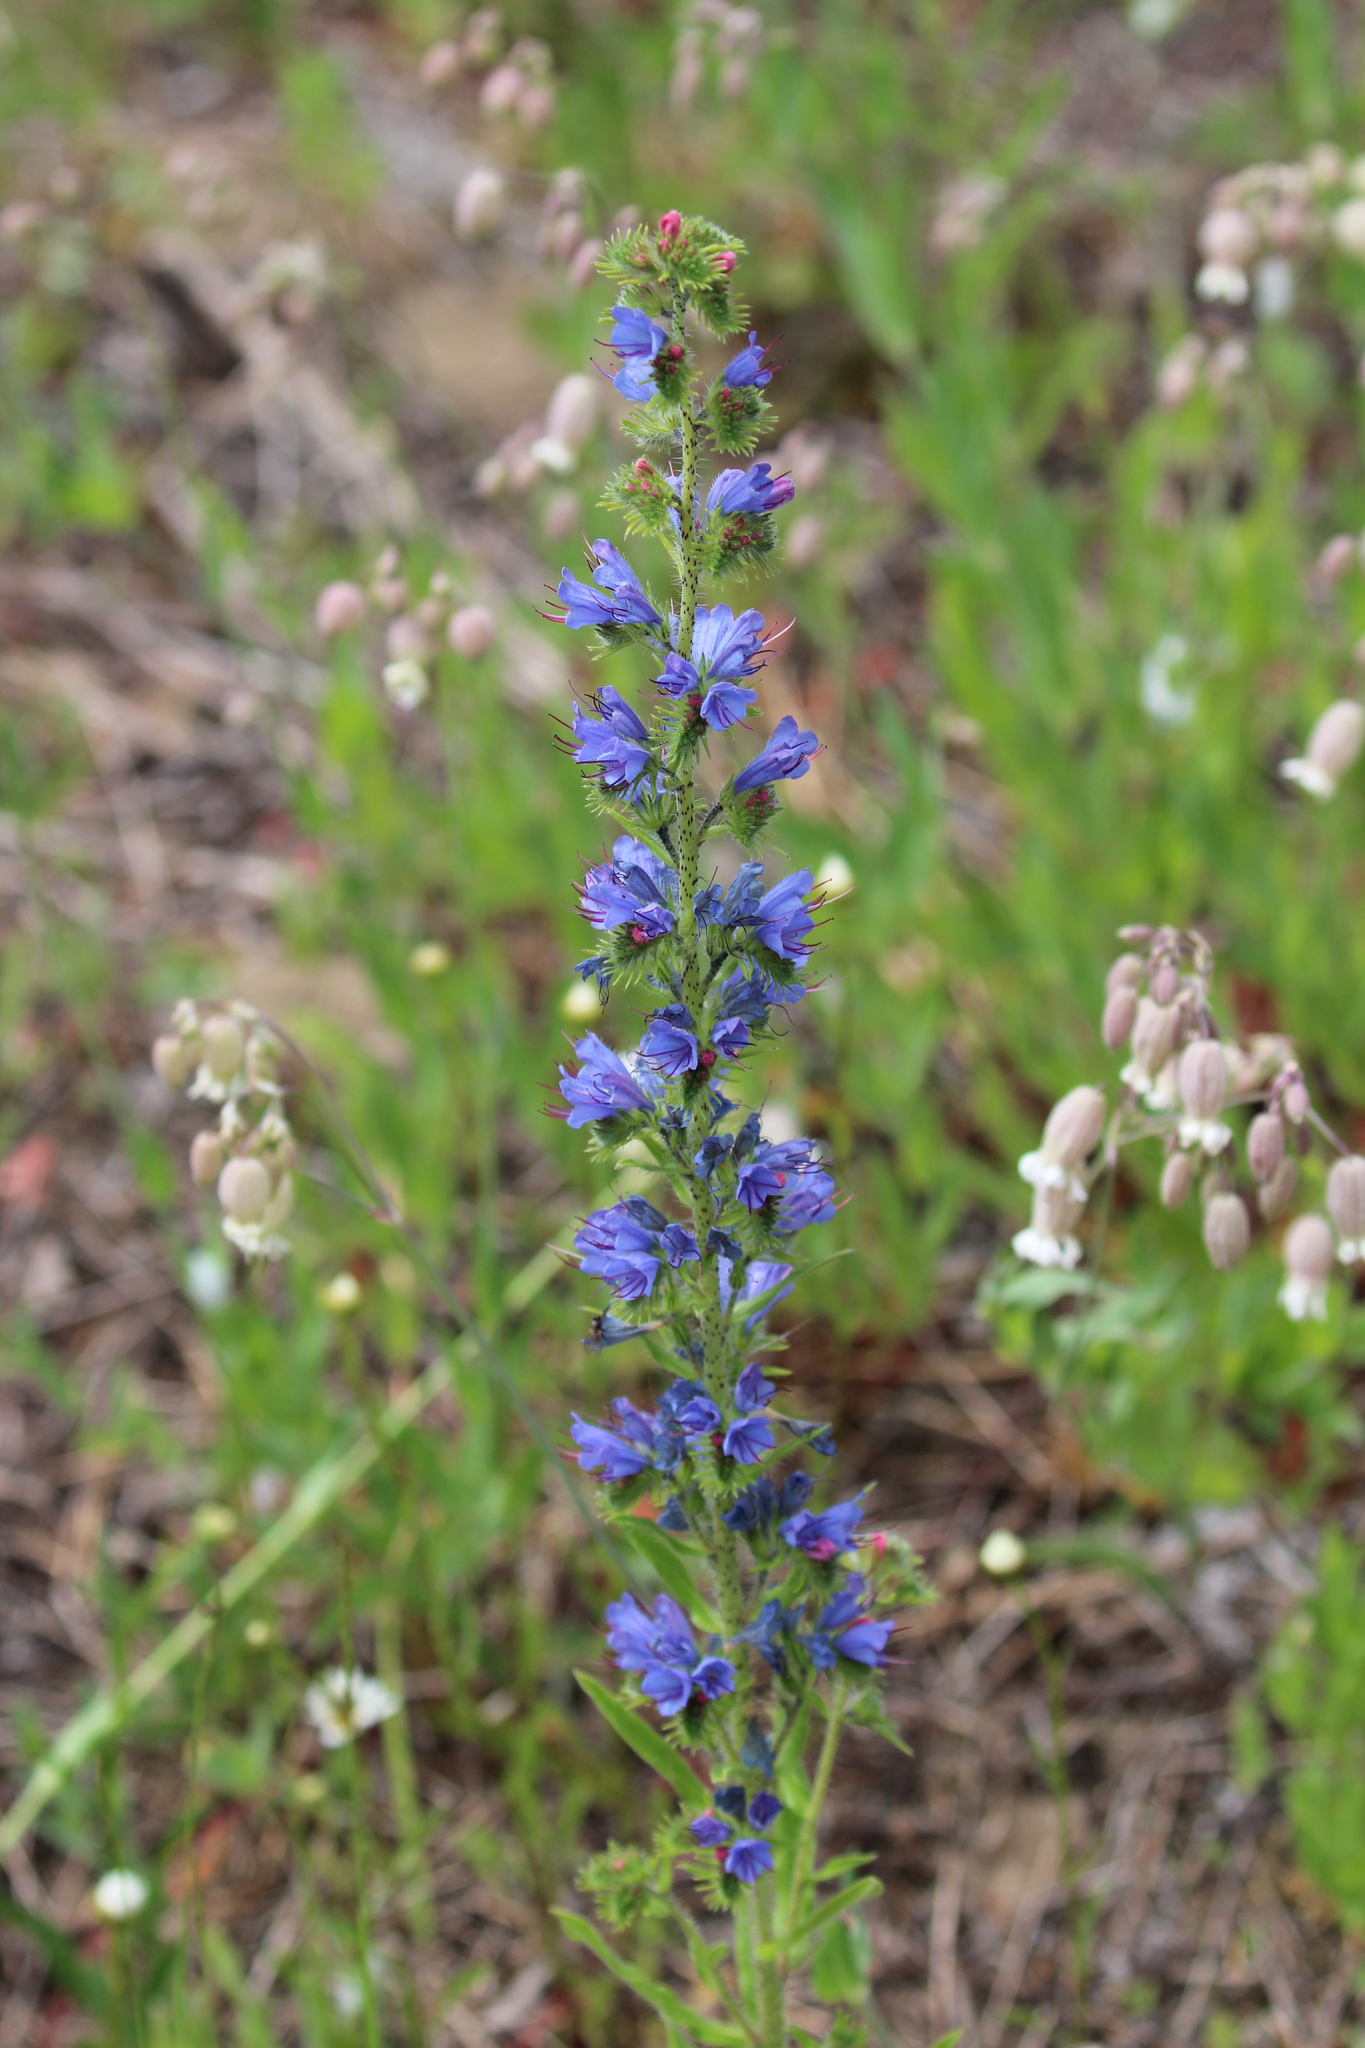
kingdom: Plantae
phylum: Tracheophyta
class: Magnoliopsida
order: Boraginales
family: Boraginaceae
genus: Echium
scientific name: Echium vulgare
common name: Common viper's bugloss
